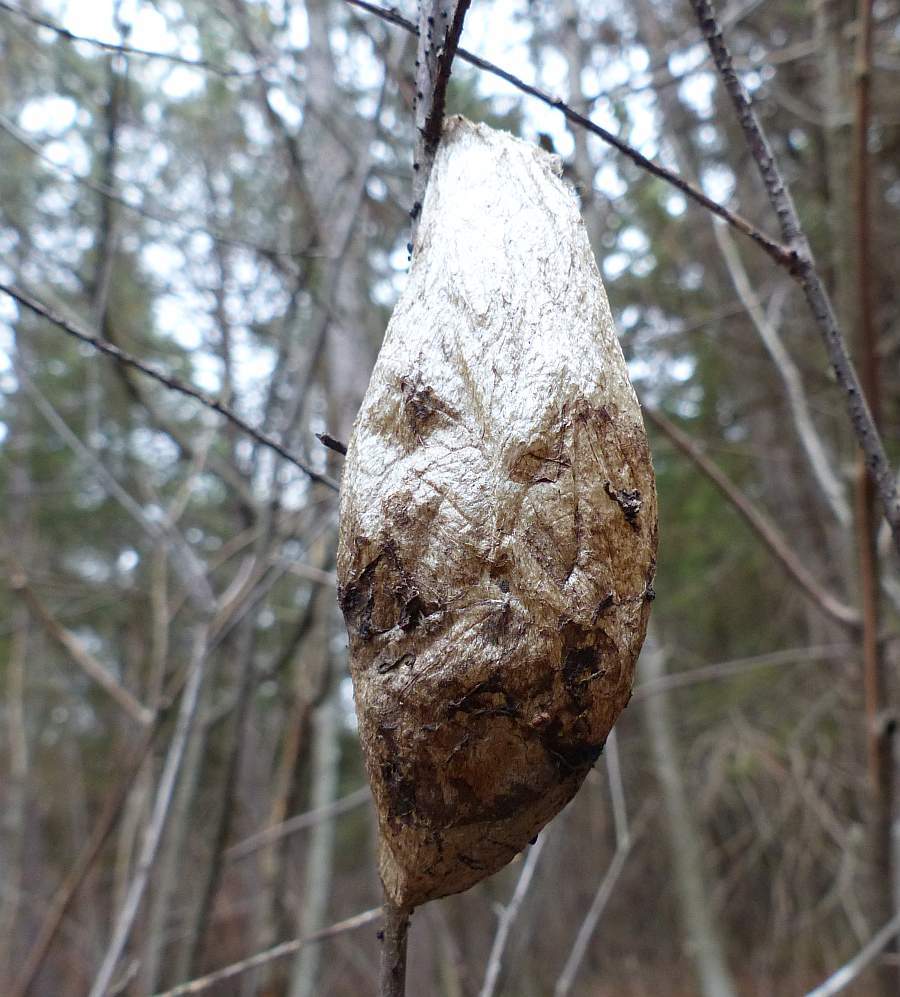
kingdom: Animalia
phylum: Arthropoda
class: Insecta
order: Lepidoptera
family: Saturniidae
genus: Hyalophora
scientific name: Hyalophora cecropia
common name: Cecropia silkmoth
